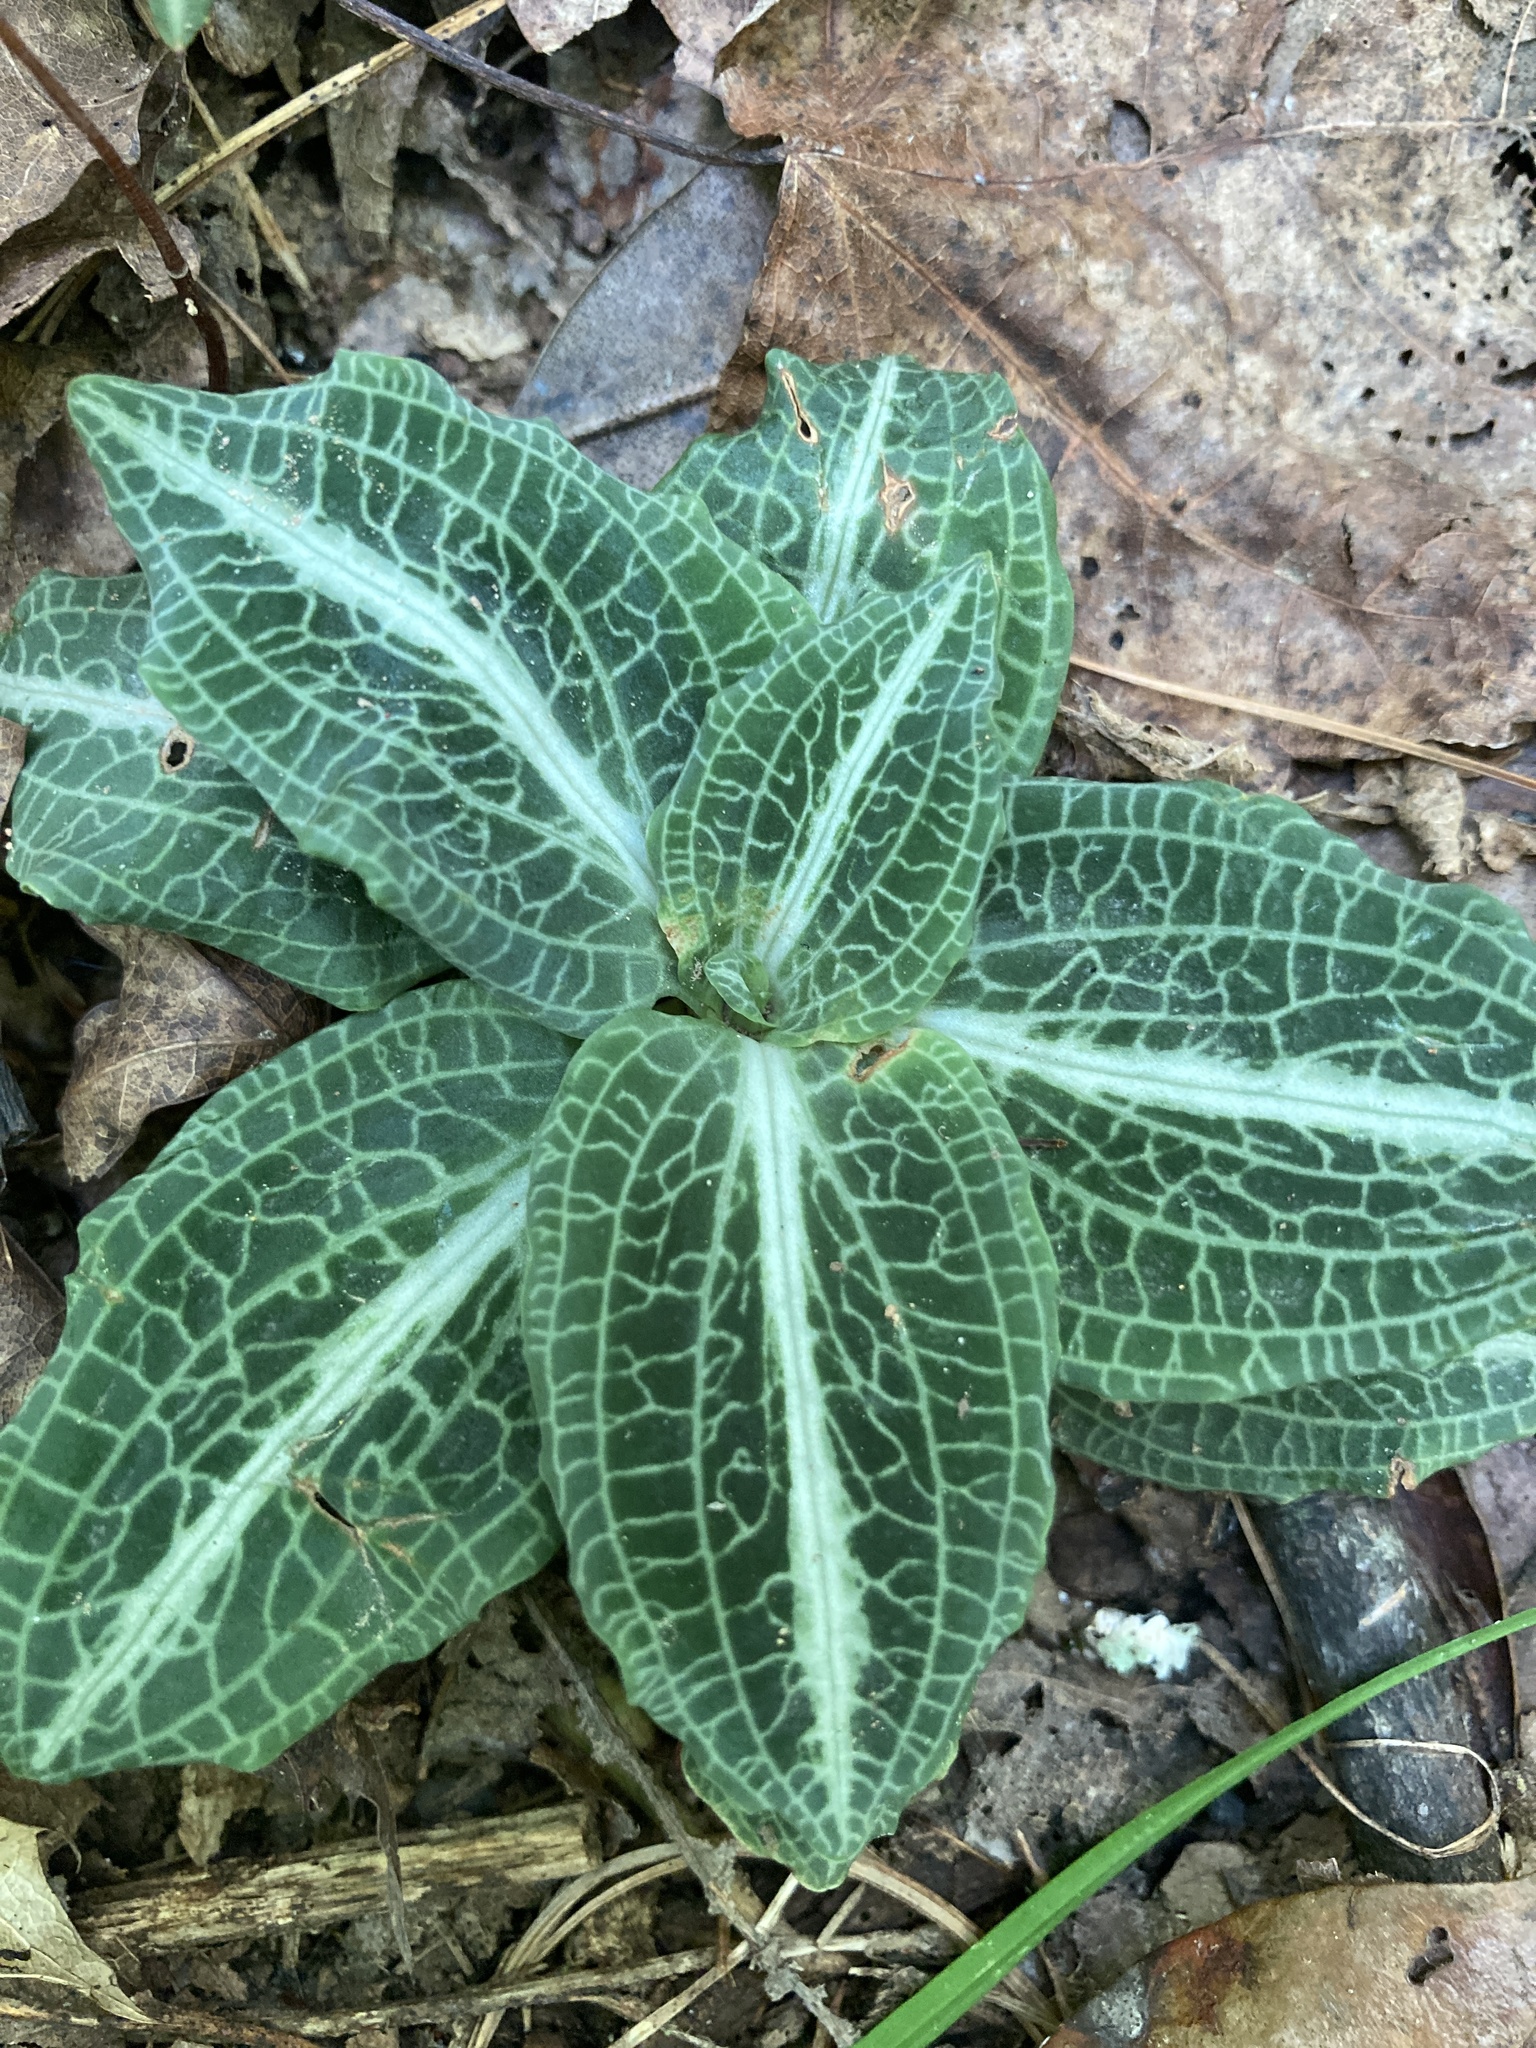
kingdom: Plantae
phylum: Tracheophyta
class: Liliopsida
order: Asparagales
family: Orchidaceae
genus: Goodyera
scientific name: Goodyera pubescens
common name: Downy rattlesnake-plantain
